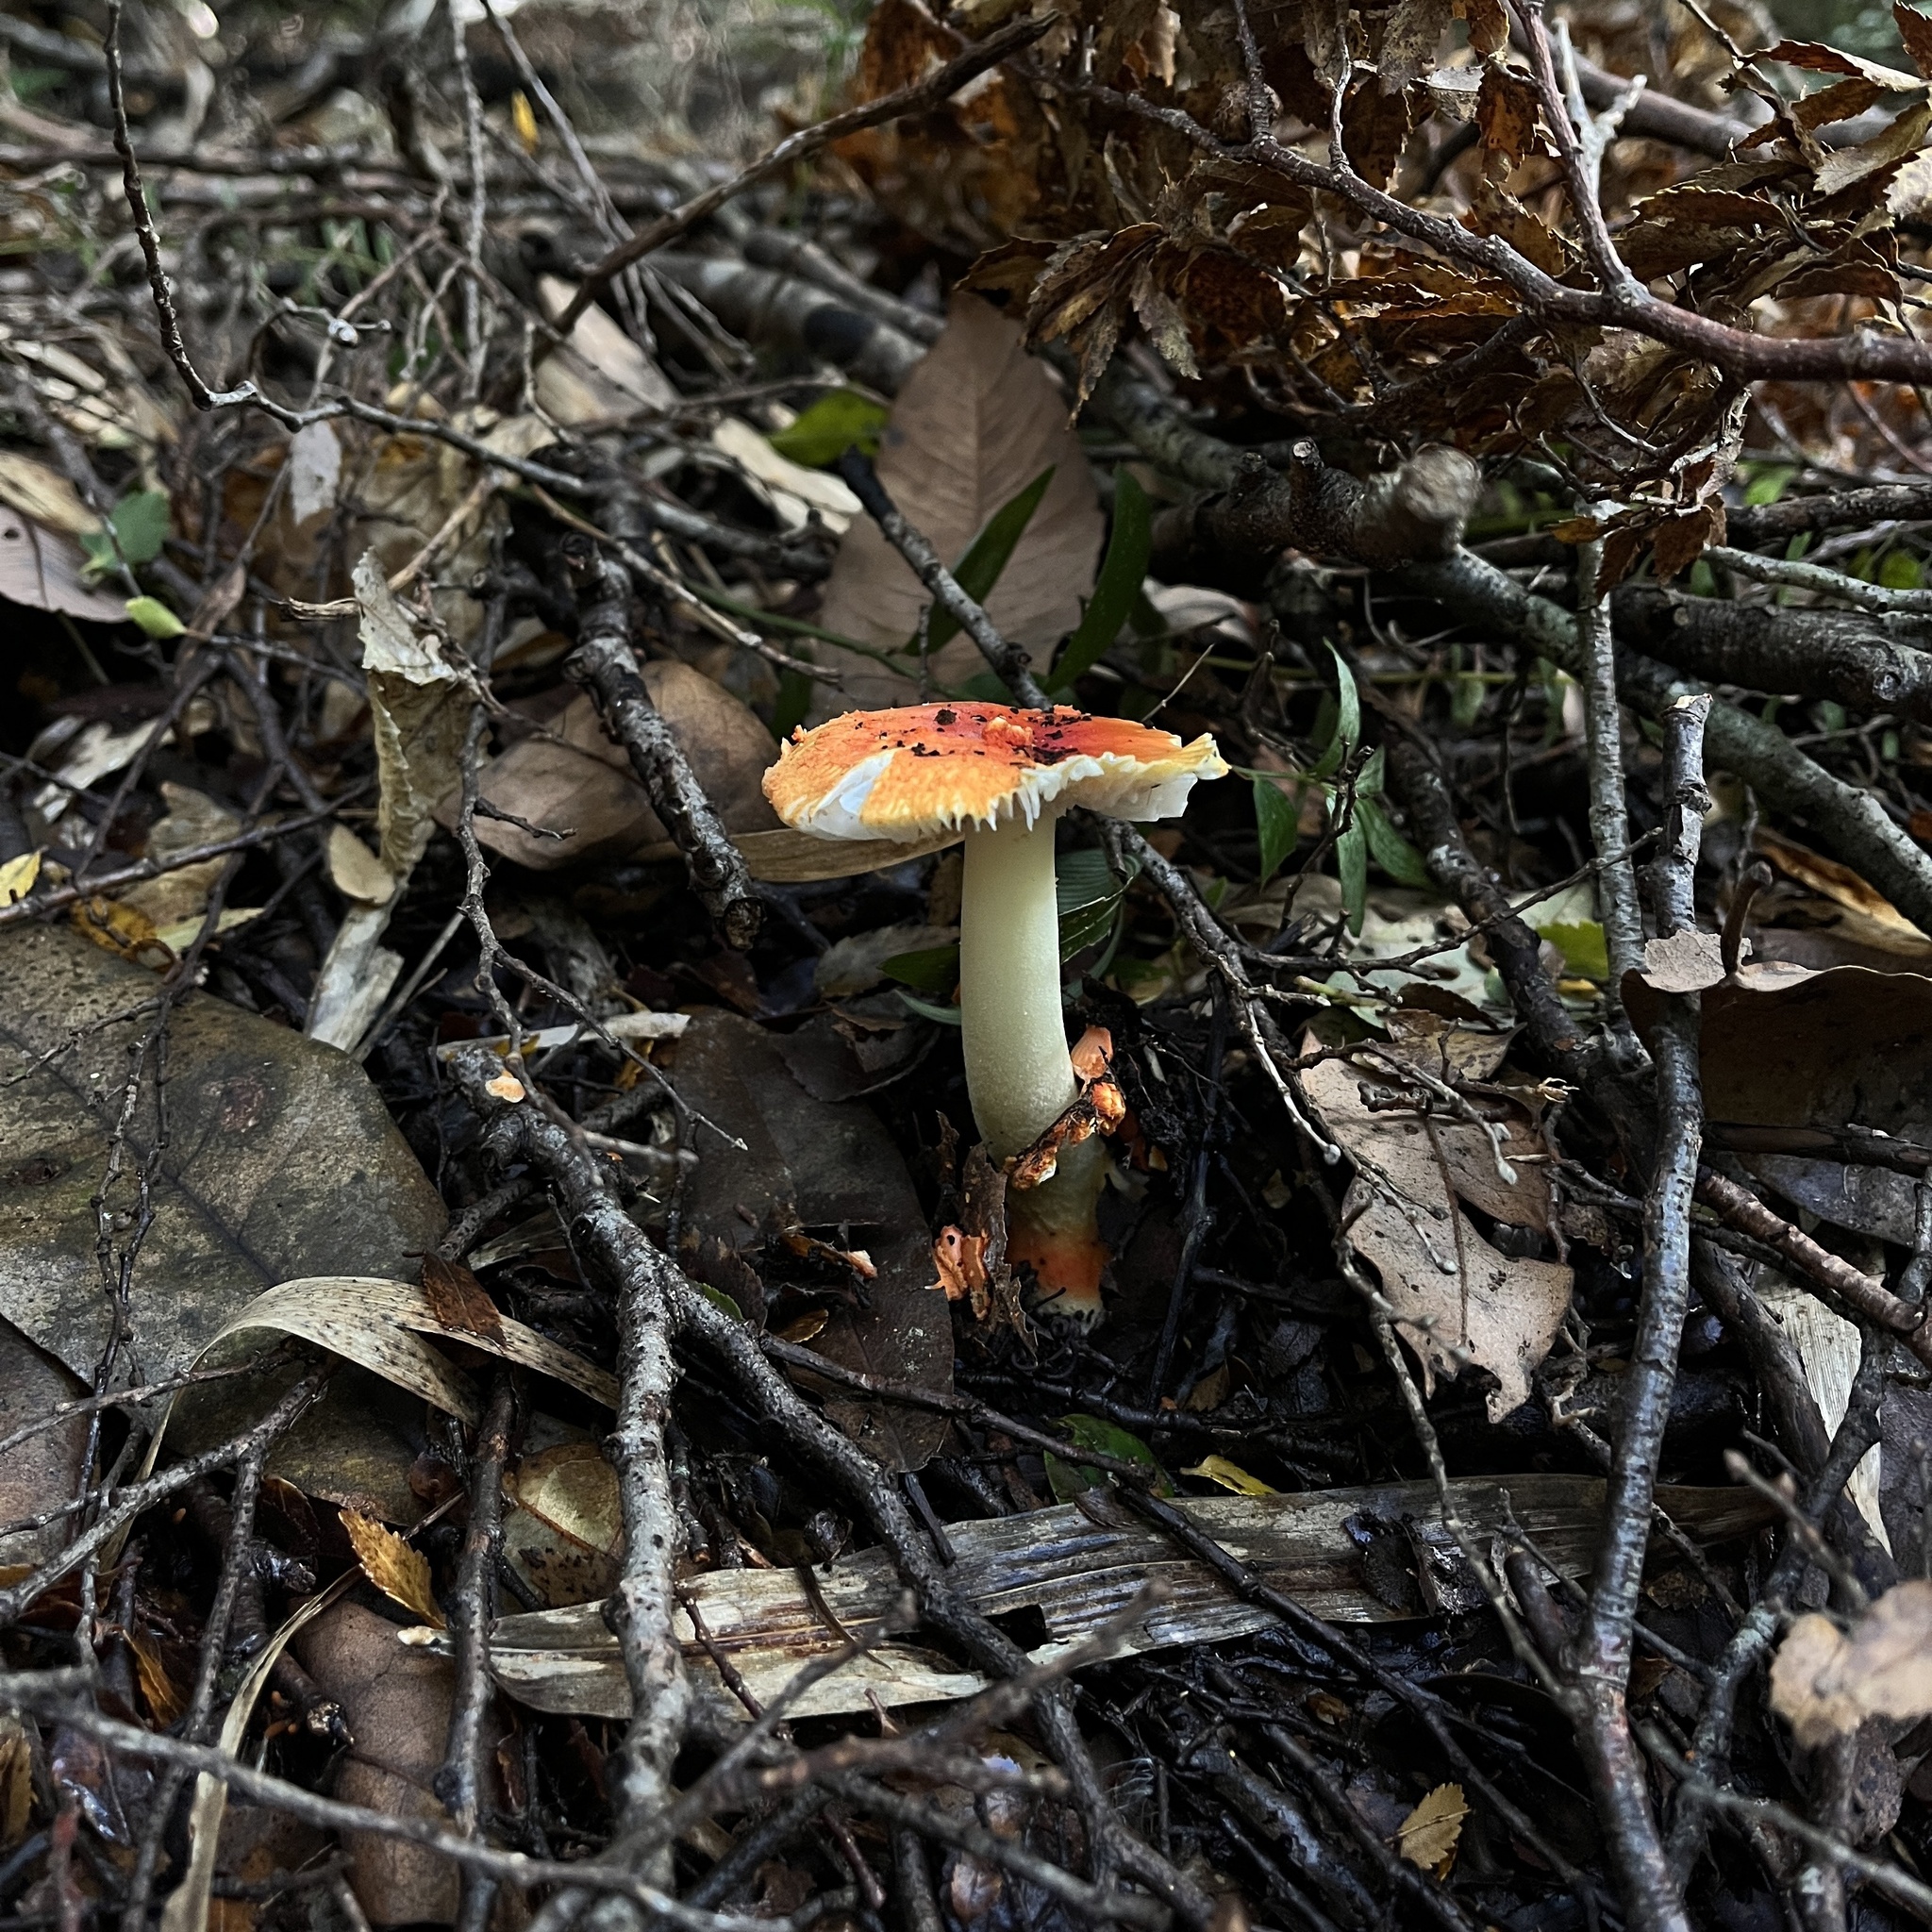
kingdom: Fungi
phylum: Basidiomycota
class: Agaricomycetes
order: Agaricales
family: Amanitaceae
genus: Amanita
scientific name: Amanita aurantiovelata
